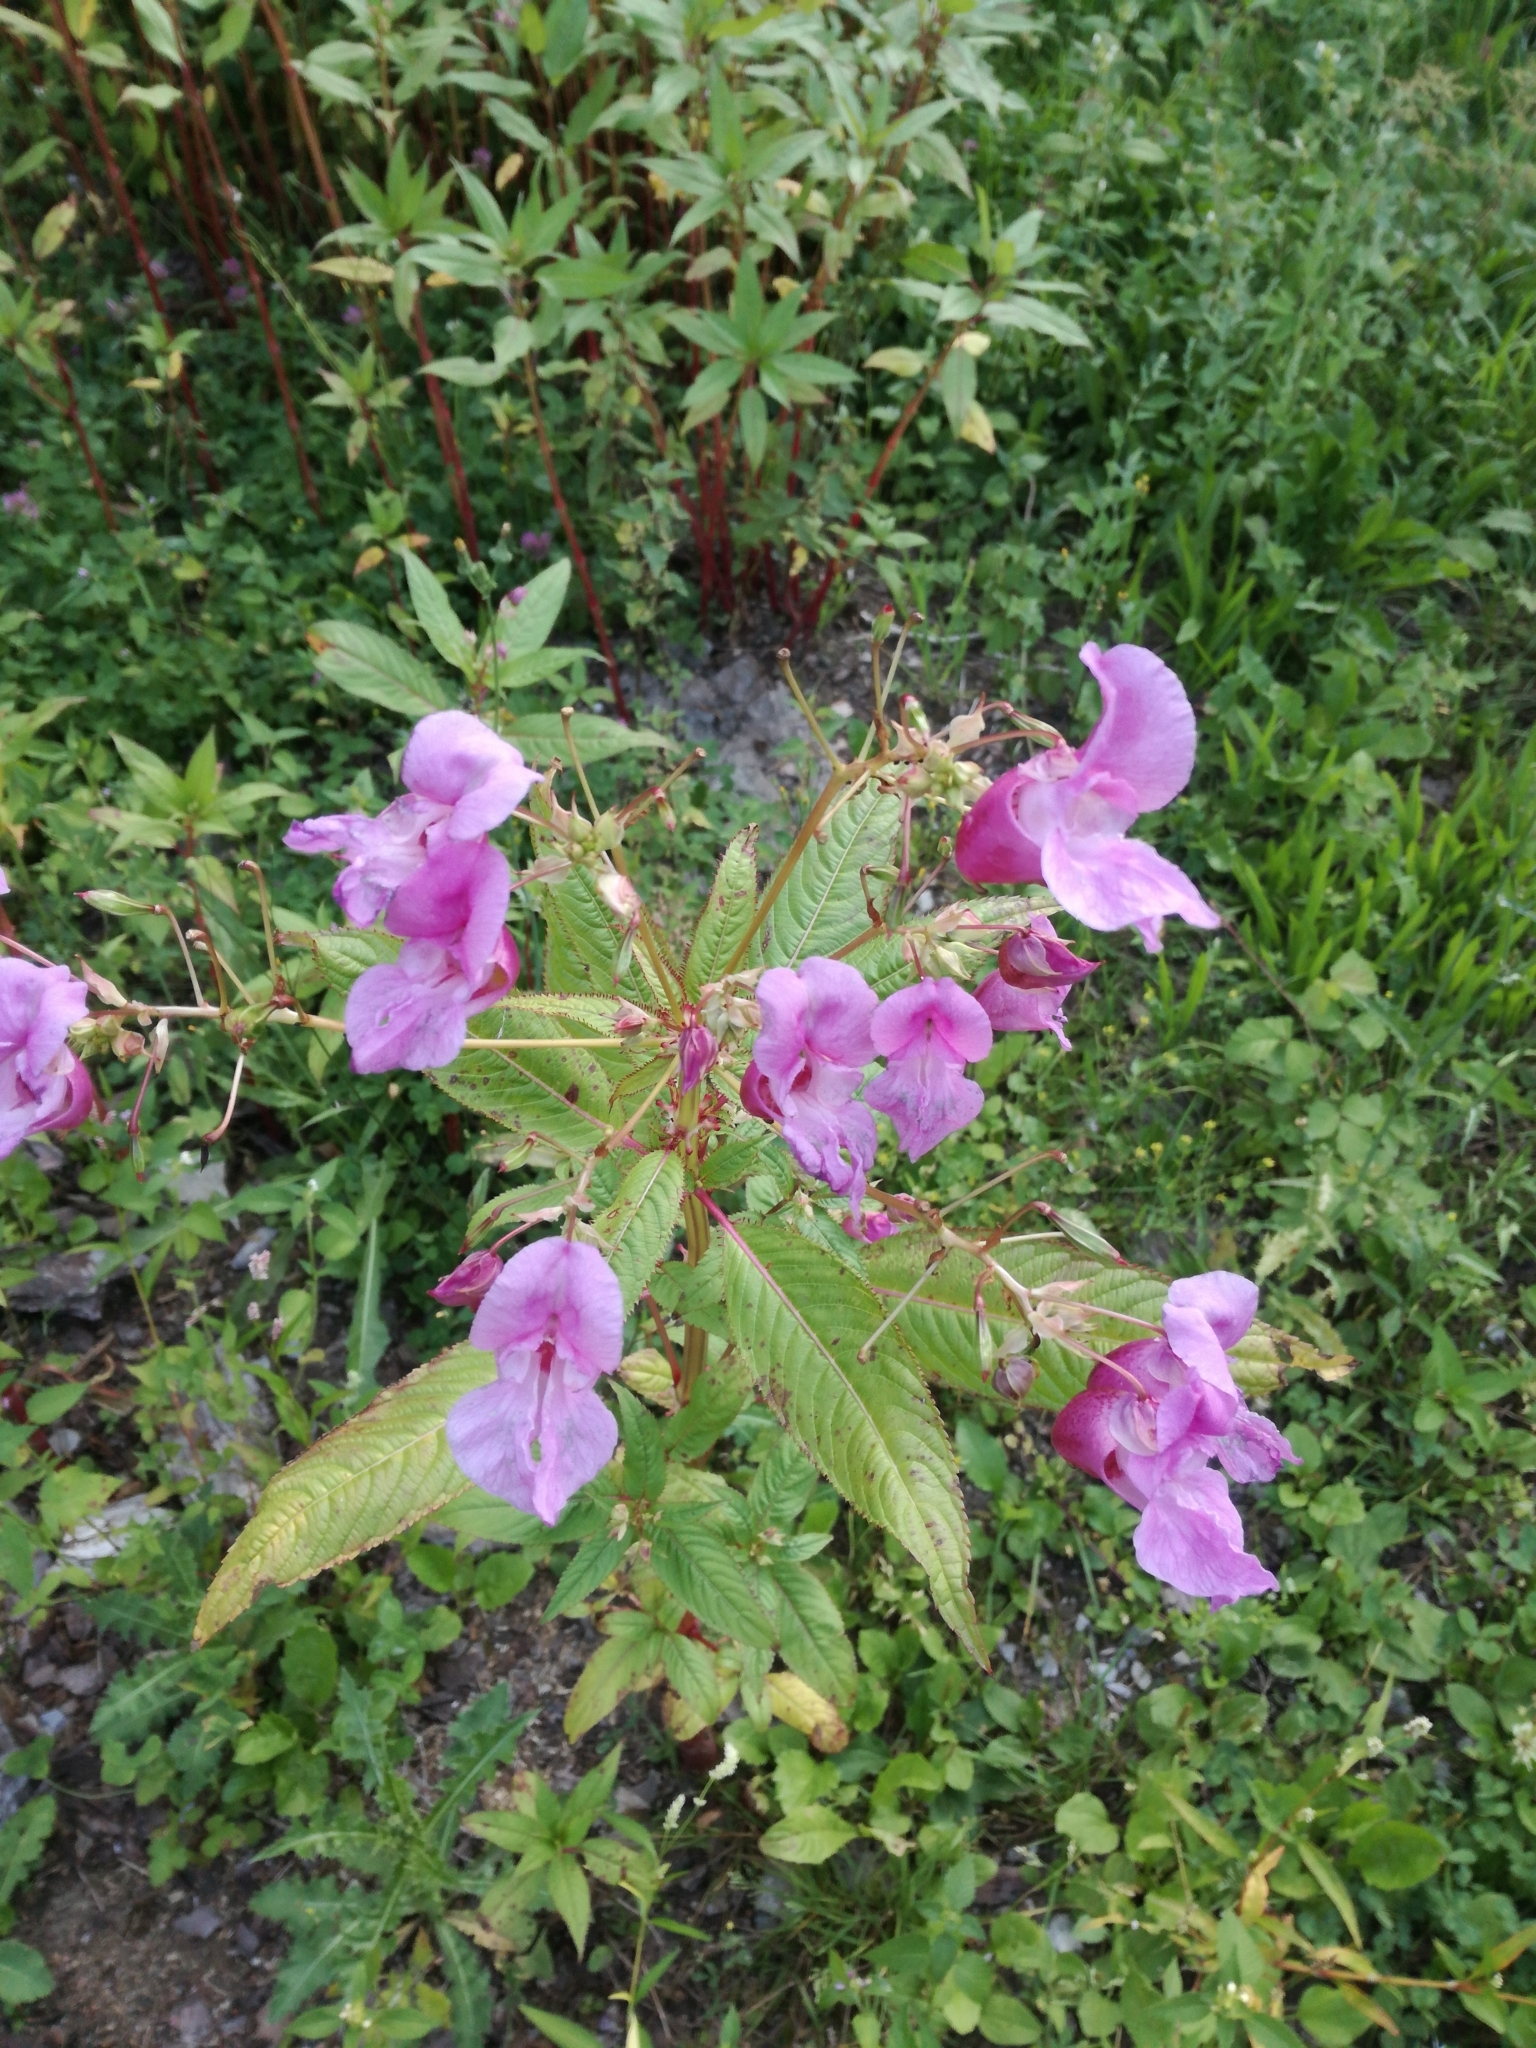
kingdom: Plantae
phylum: Tracheophyta
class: Magnoliopsida
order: Ericales
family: Balsaminaceae
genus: Impatiens
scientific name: Impatiens glandulifera
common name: Himalayan balsam
